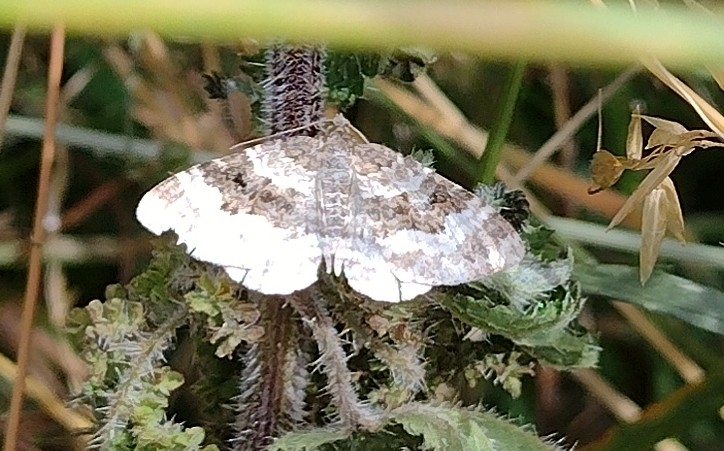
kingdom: Animalia
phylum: Arthropoda
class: Insecta
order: Lepidoptera
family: Geometridae
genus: Epirrhoe
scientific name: Epirrhoe alternata
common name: Common carpet
